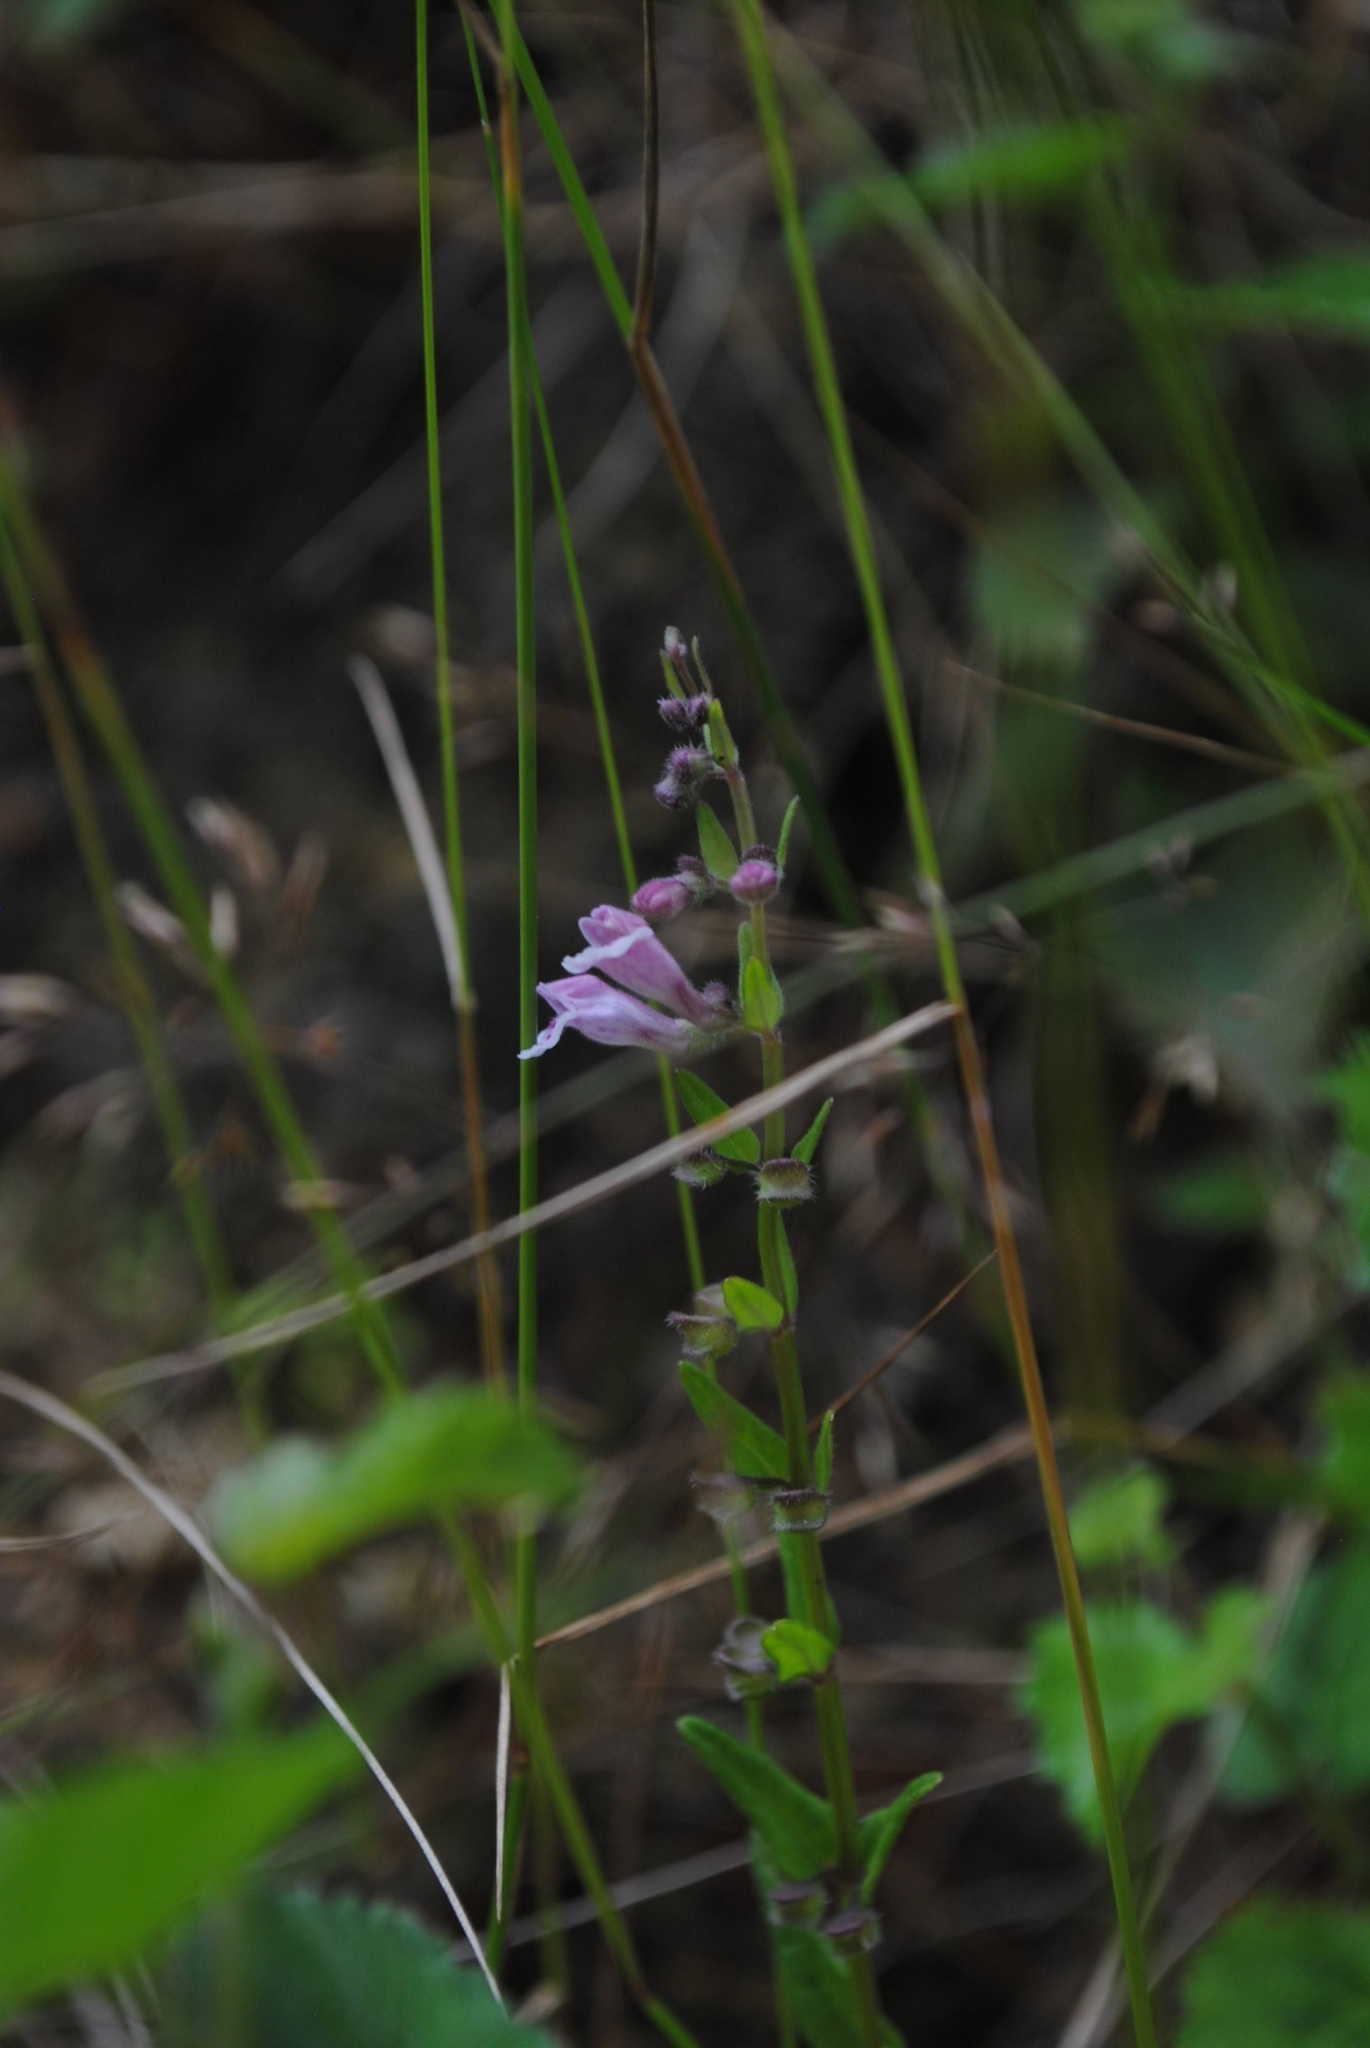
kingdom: Plantae
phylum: Tracheophyta
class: Magnoliopsida
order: Lamiales
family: Lamiaceae
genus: Scutellaria
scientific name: Scutellaria minor
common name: Lesser skullcap
